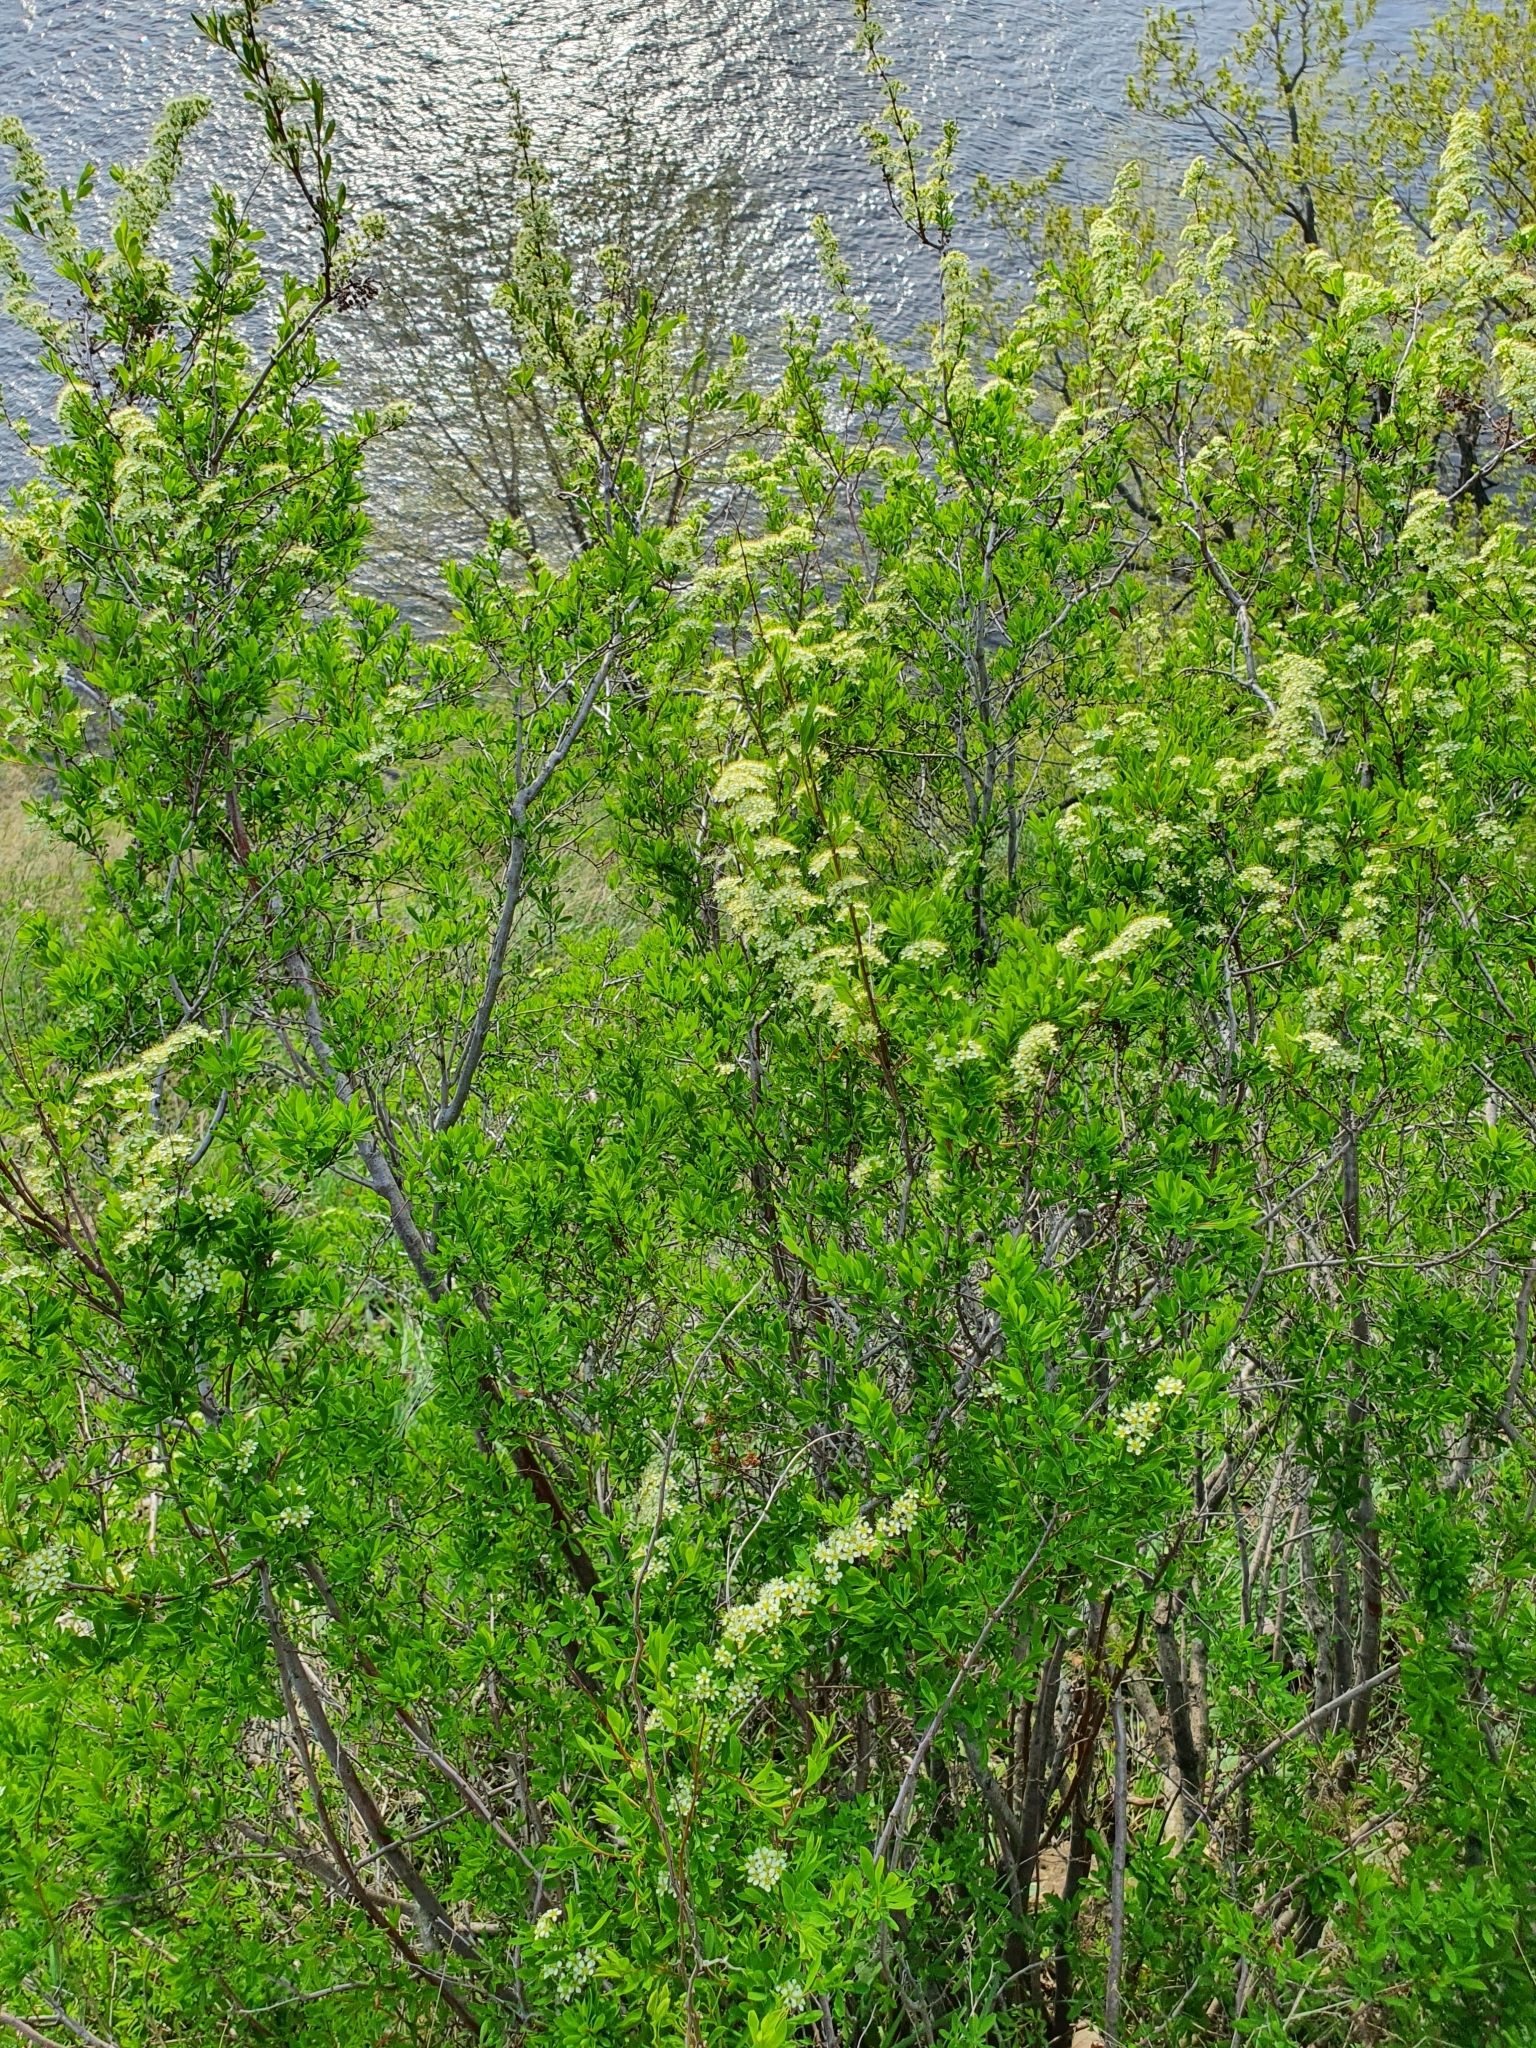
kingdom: Plantae
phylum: Tracheophyta
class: Magnoliopsida
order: Rosales
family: Rosaceae
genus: Spiraea
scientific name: Spiraea hypericifolia
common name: Iberian spirea
